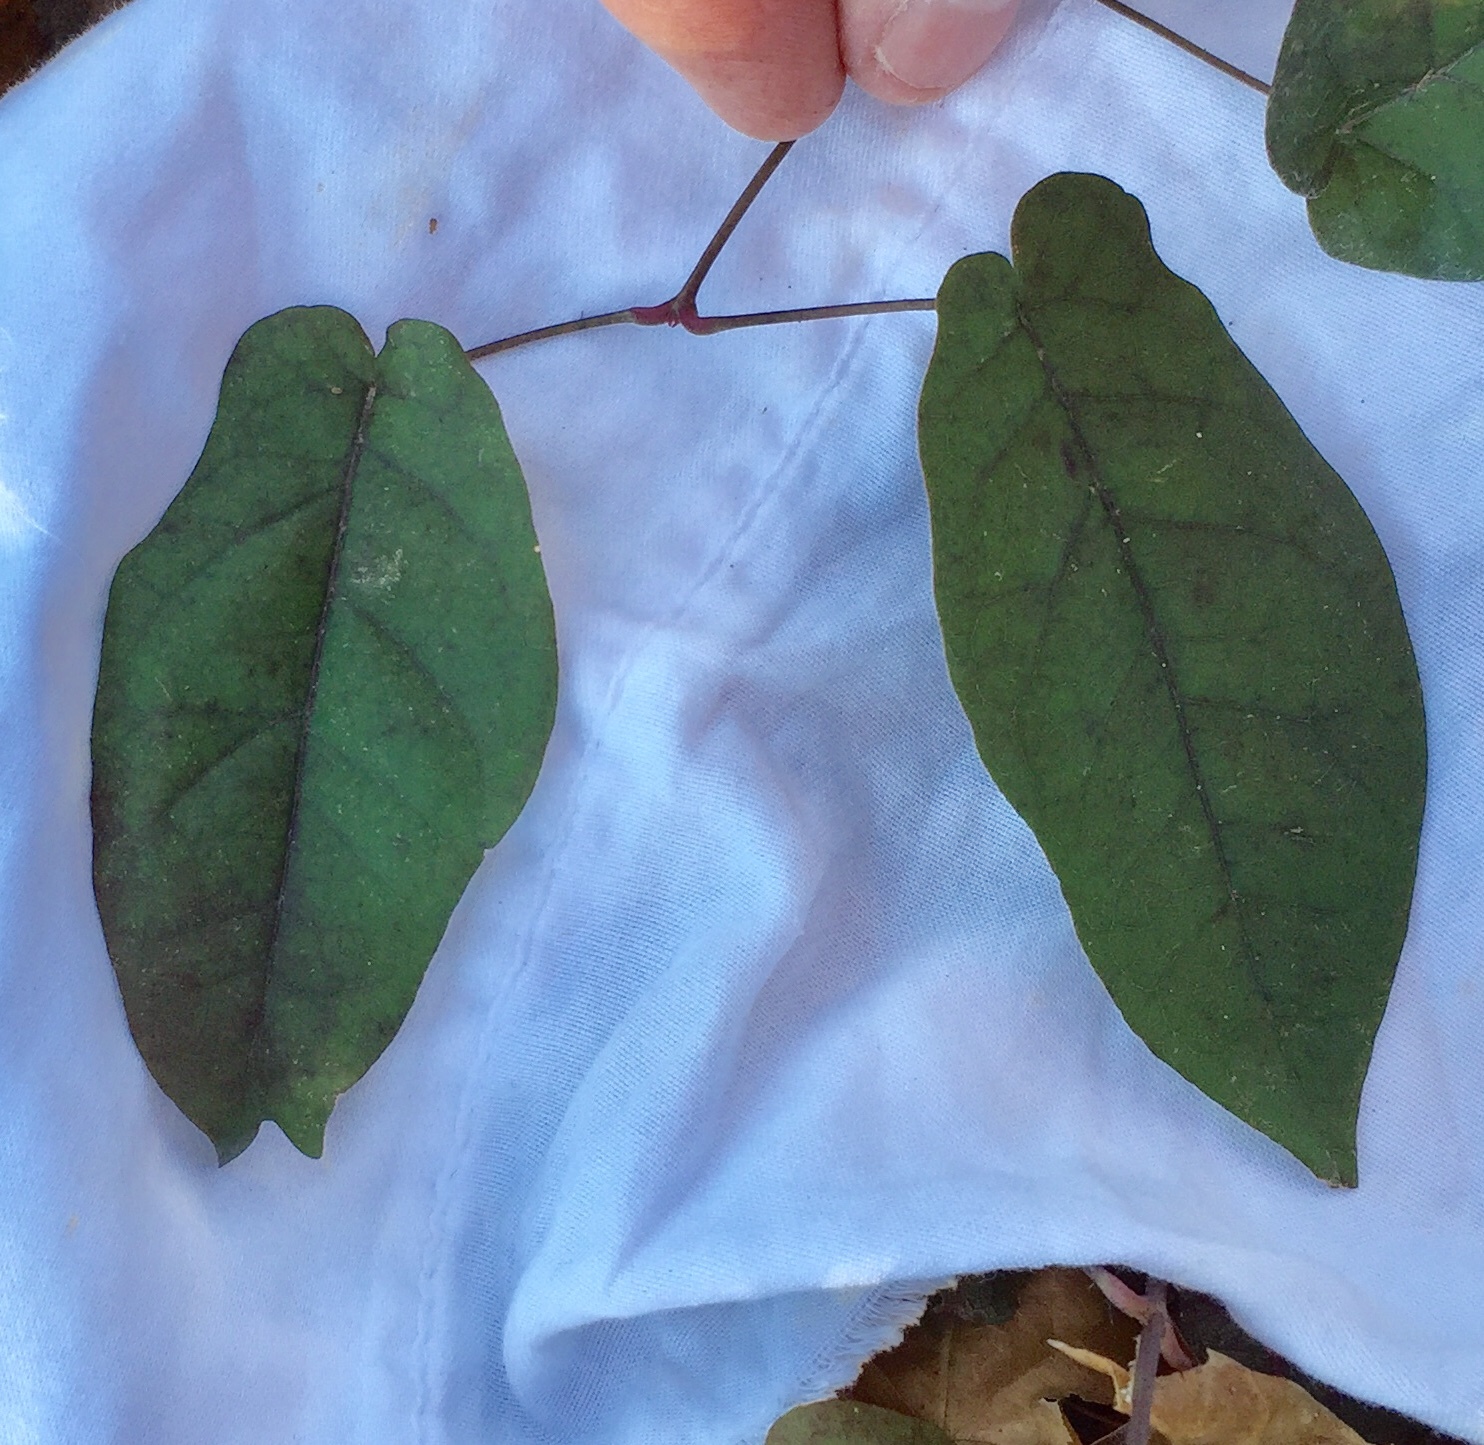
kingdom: Plantae
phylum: Tracheophyta
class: Magnoliopsida
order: Lamiales
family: Bignoniaceae
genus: Bignonia
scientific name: Bignonia capreolata
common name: Crossvine
